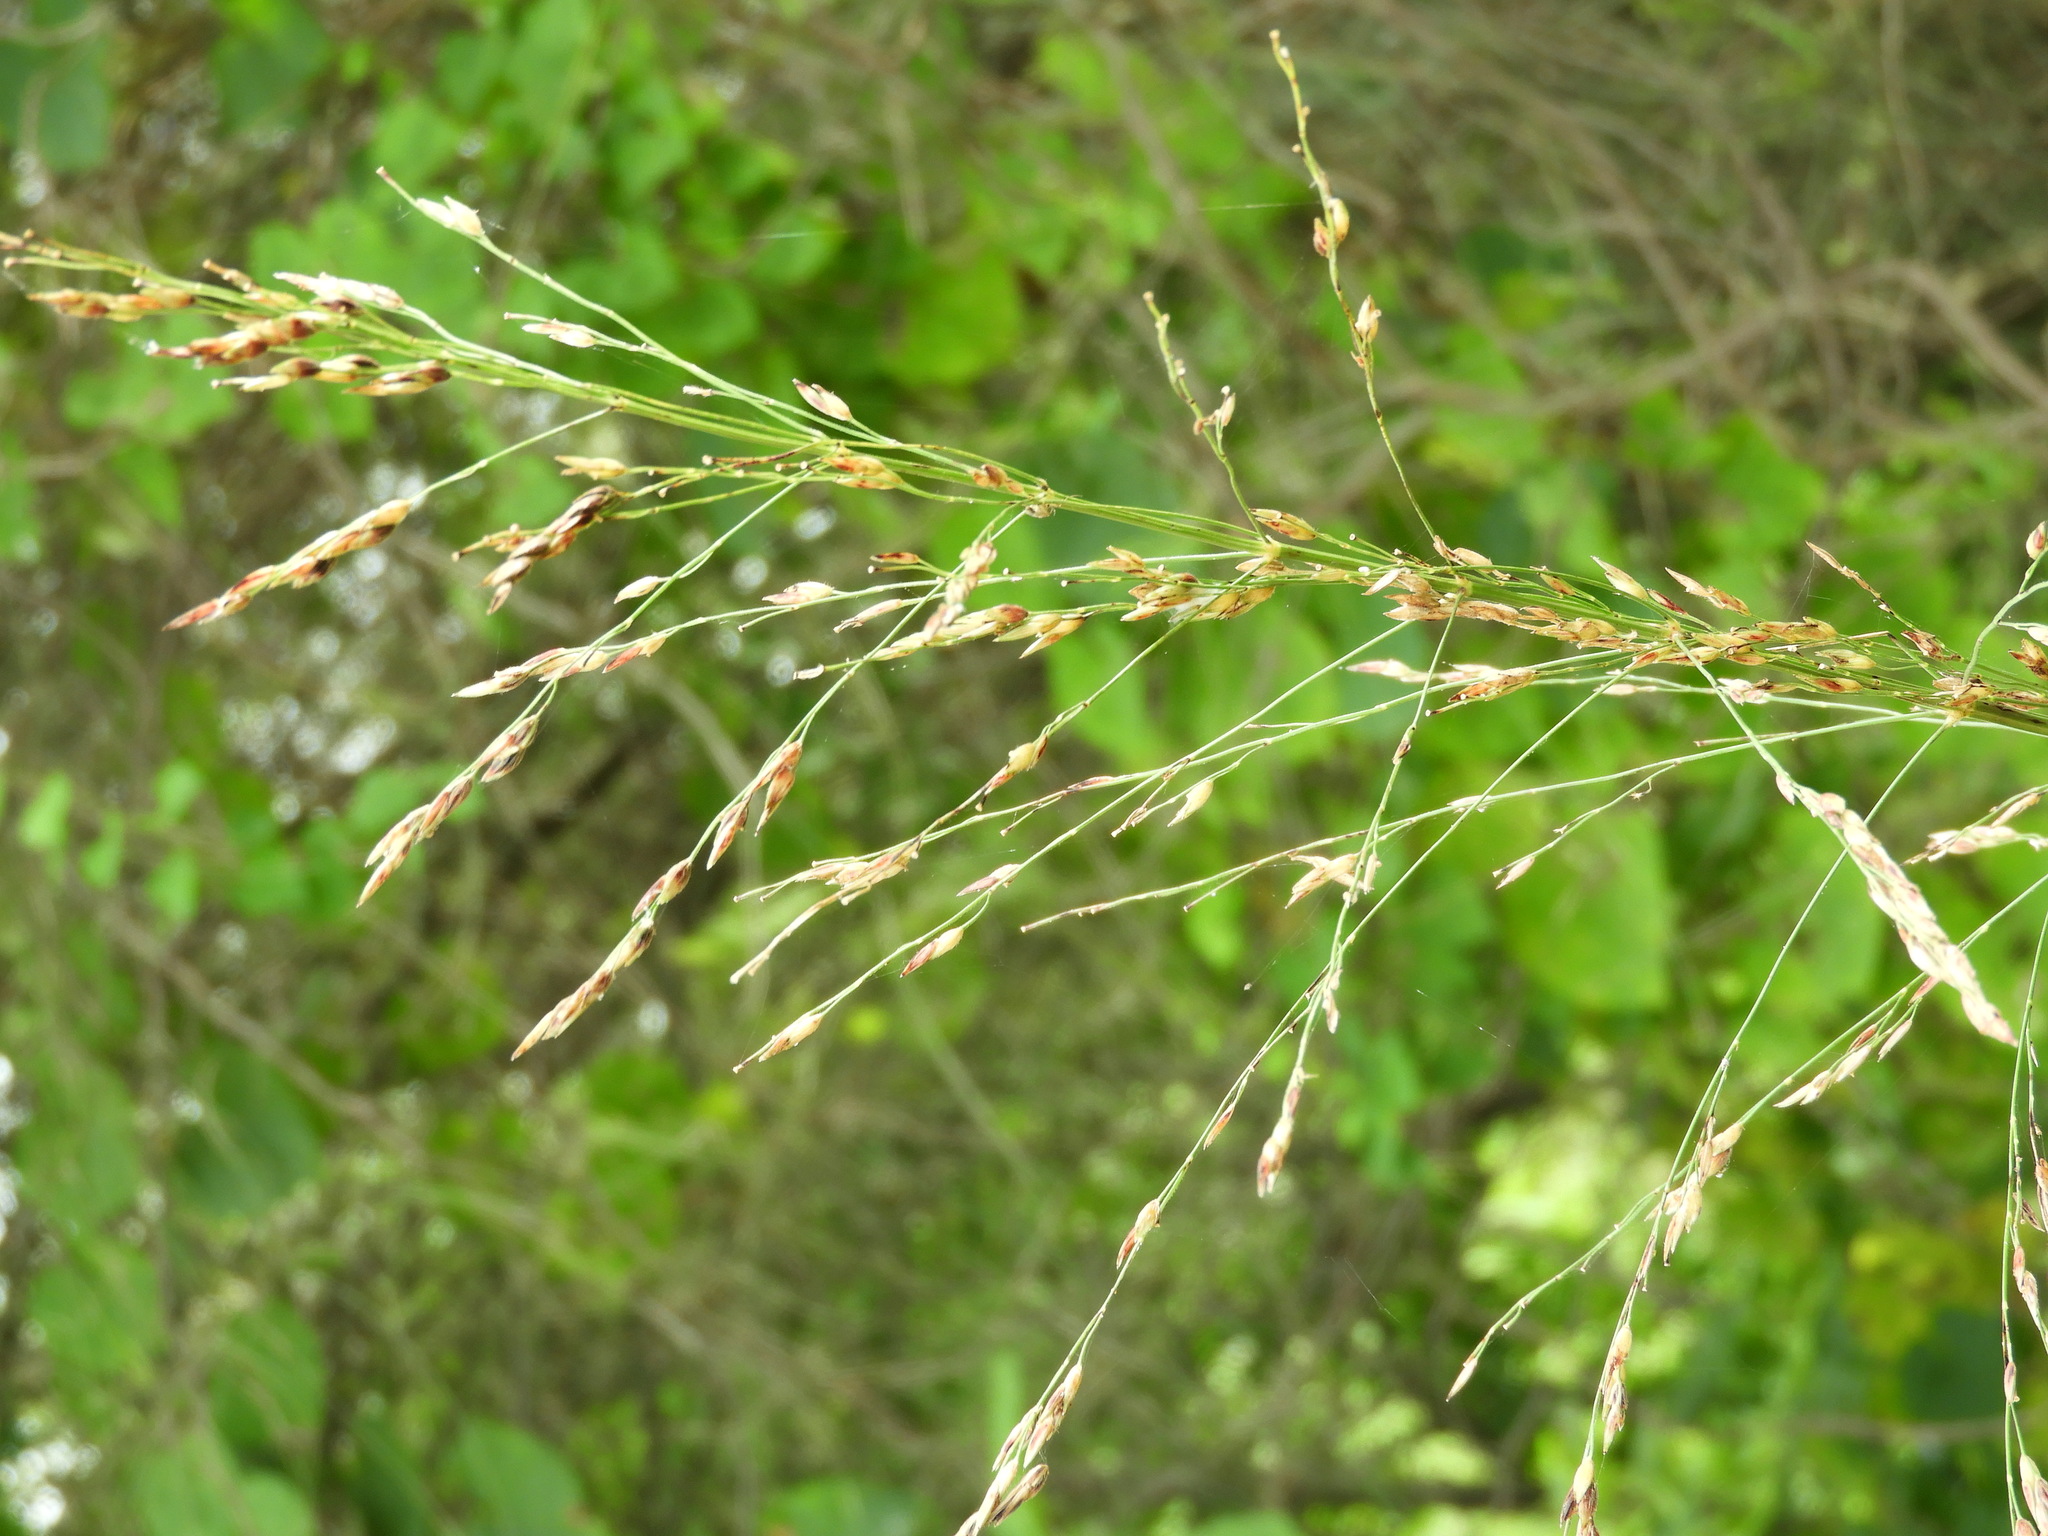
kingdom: Plantae
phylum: Tracheophyta
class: Liliopsida
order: Poales
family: Poaceae
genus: Sorghum
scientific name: Sorghum halepense
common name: Johnson-grass
